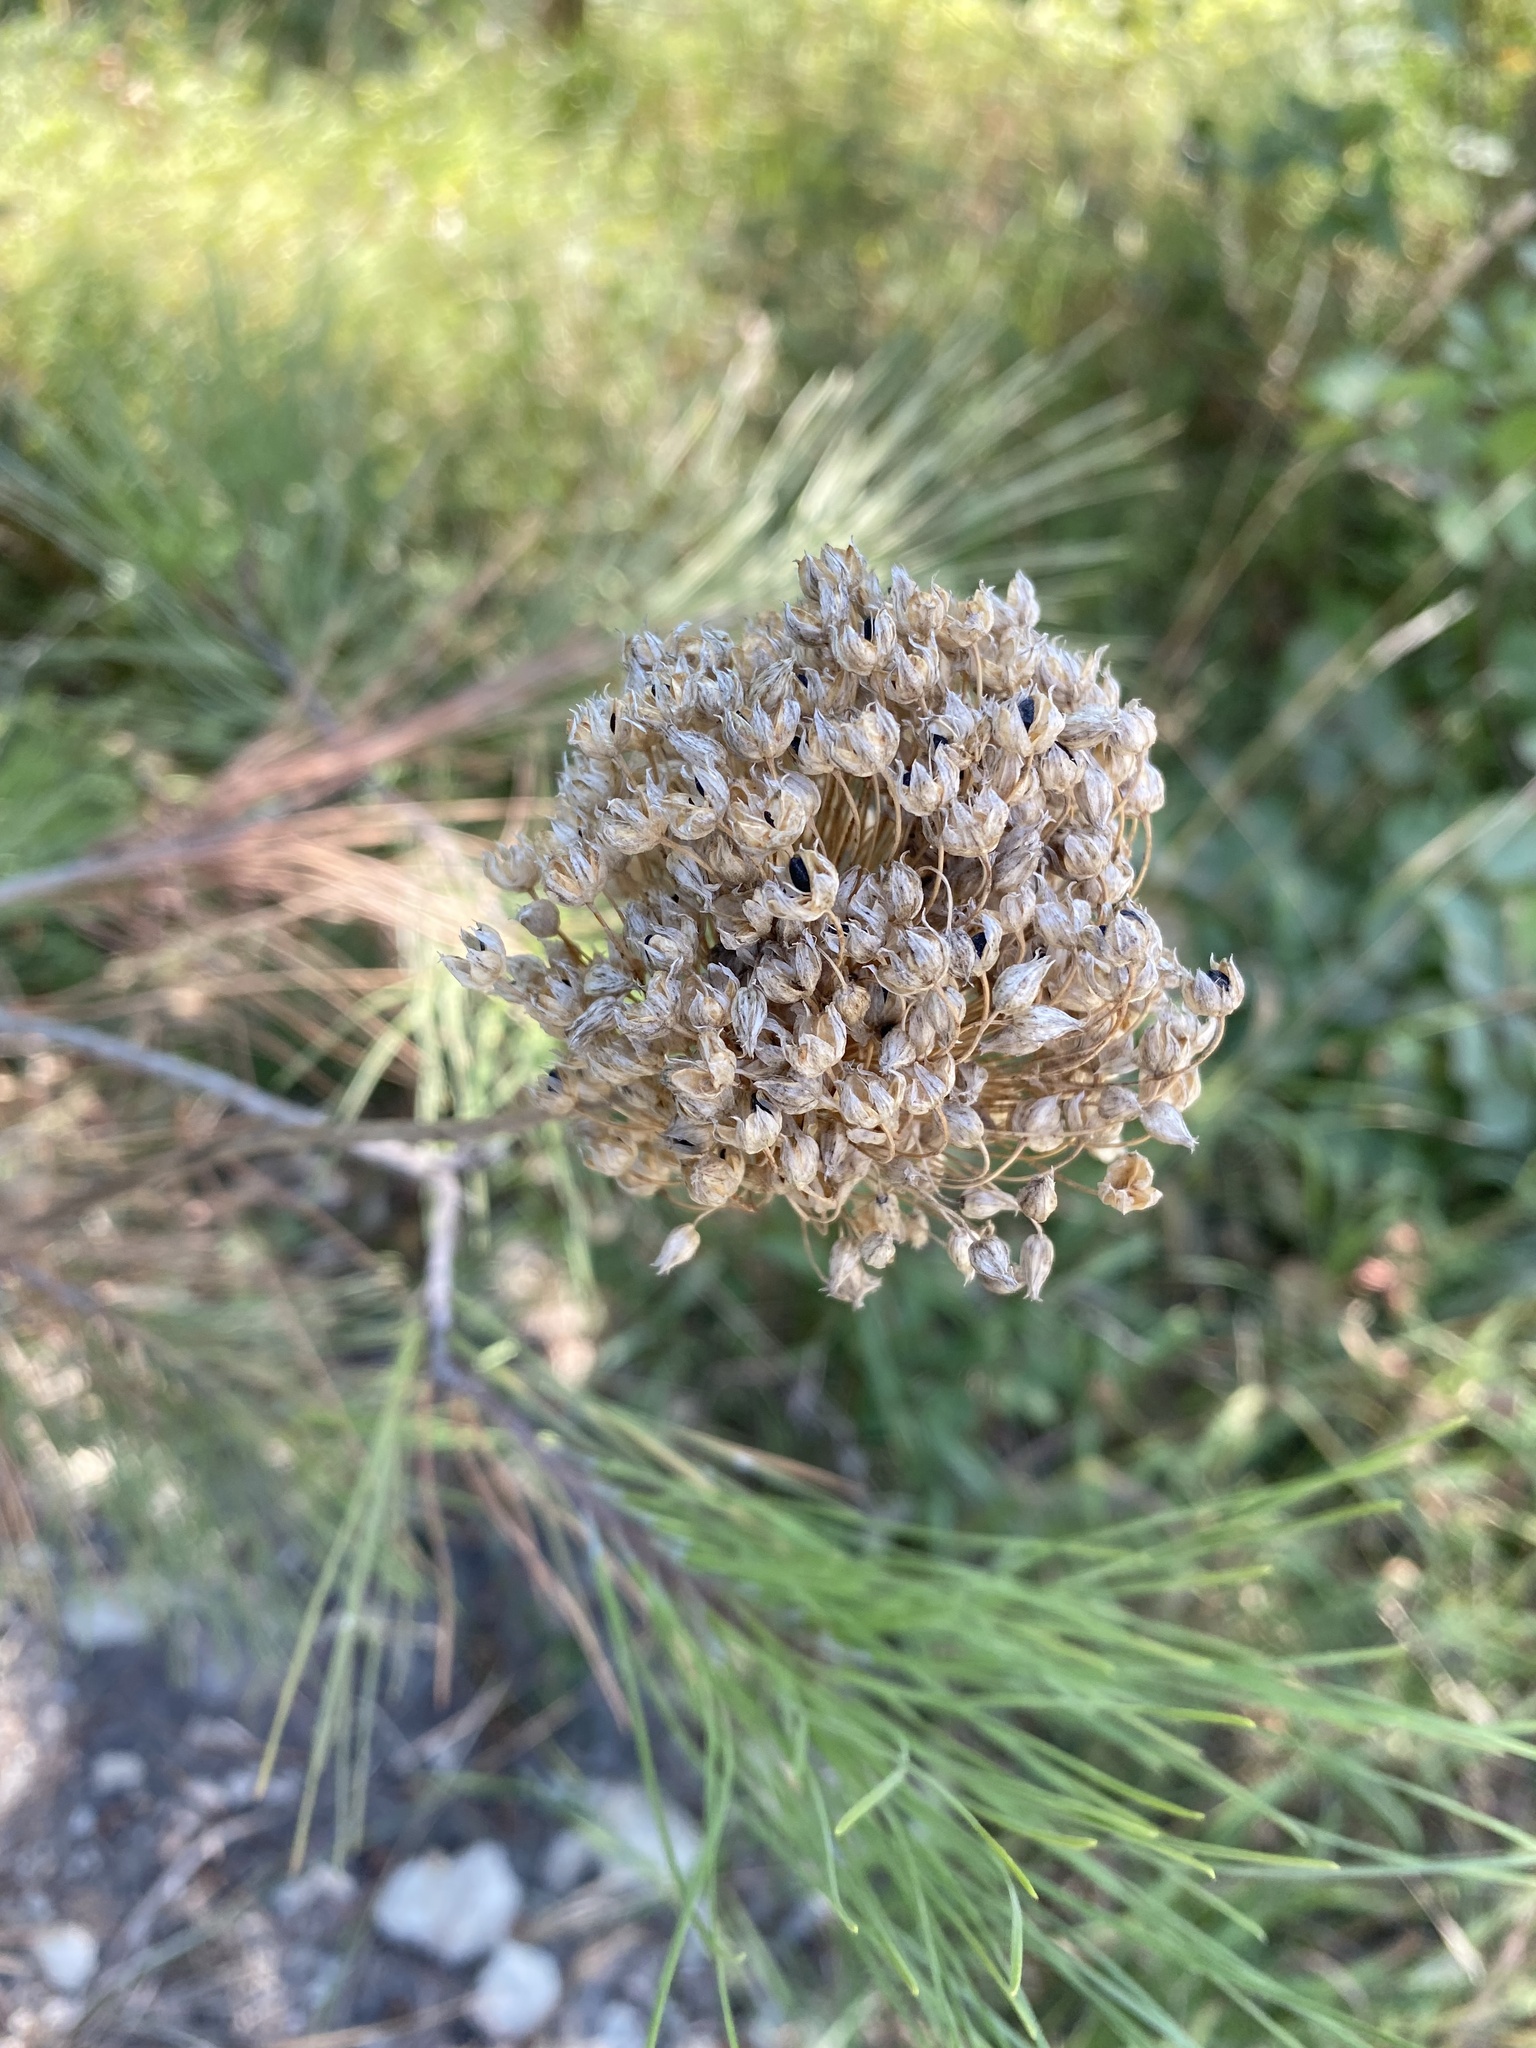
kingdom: Plantae
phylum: Tracheophyta
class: Liliopsida
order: Asparagales
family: Amaryllidaceae
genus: Allium
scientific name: Allium rotundum
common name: Sand leek
